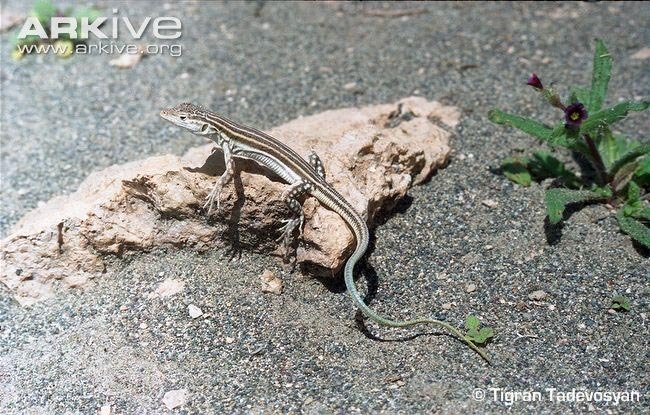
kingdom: Animalia
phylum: Chordata
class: Squamata
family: Lacertidae
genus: Eremias
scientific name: Eremias pleskei
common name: Pleske's racerunner
